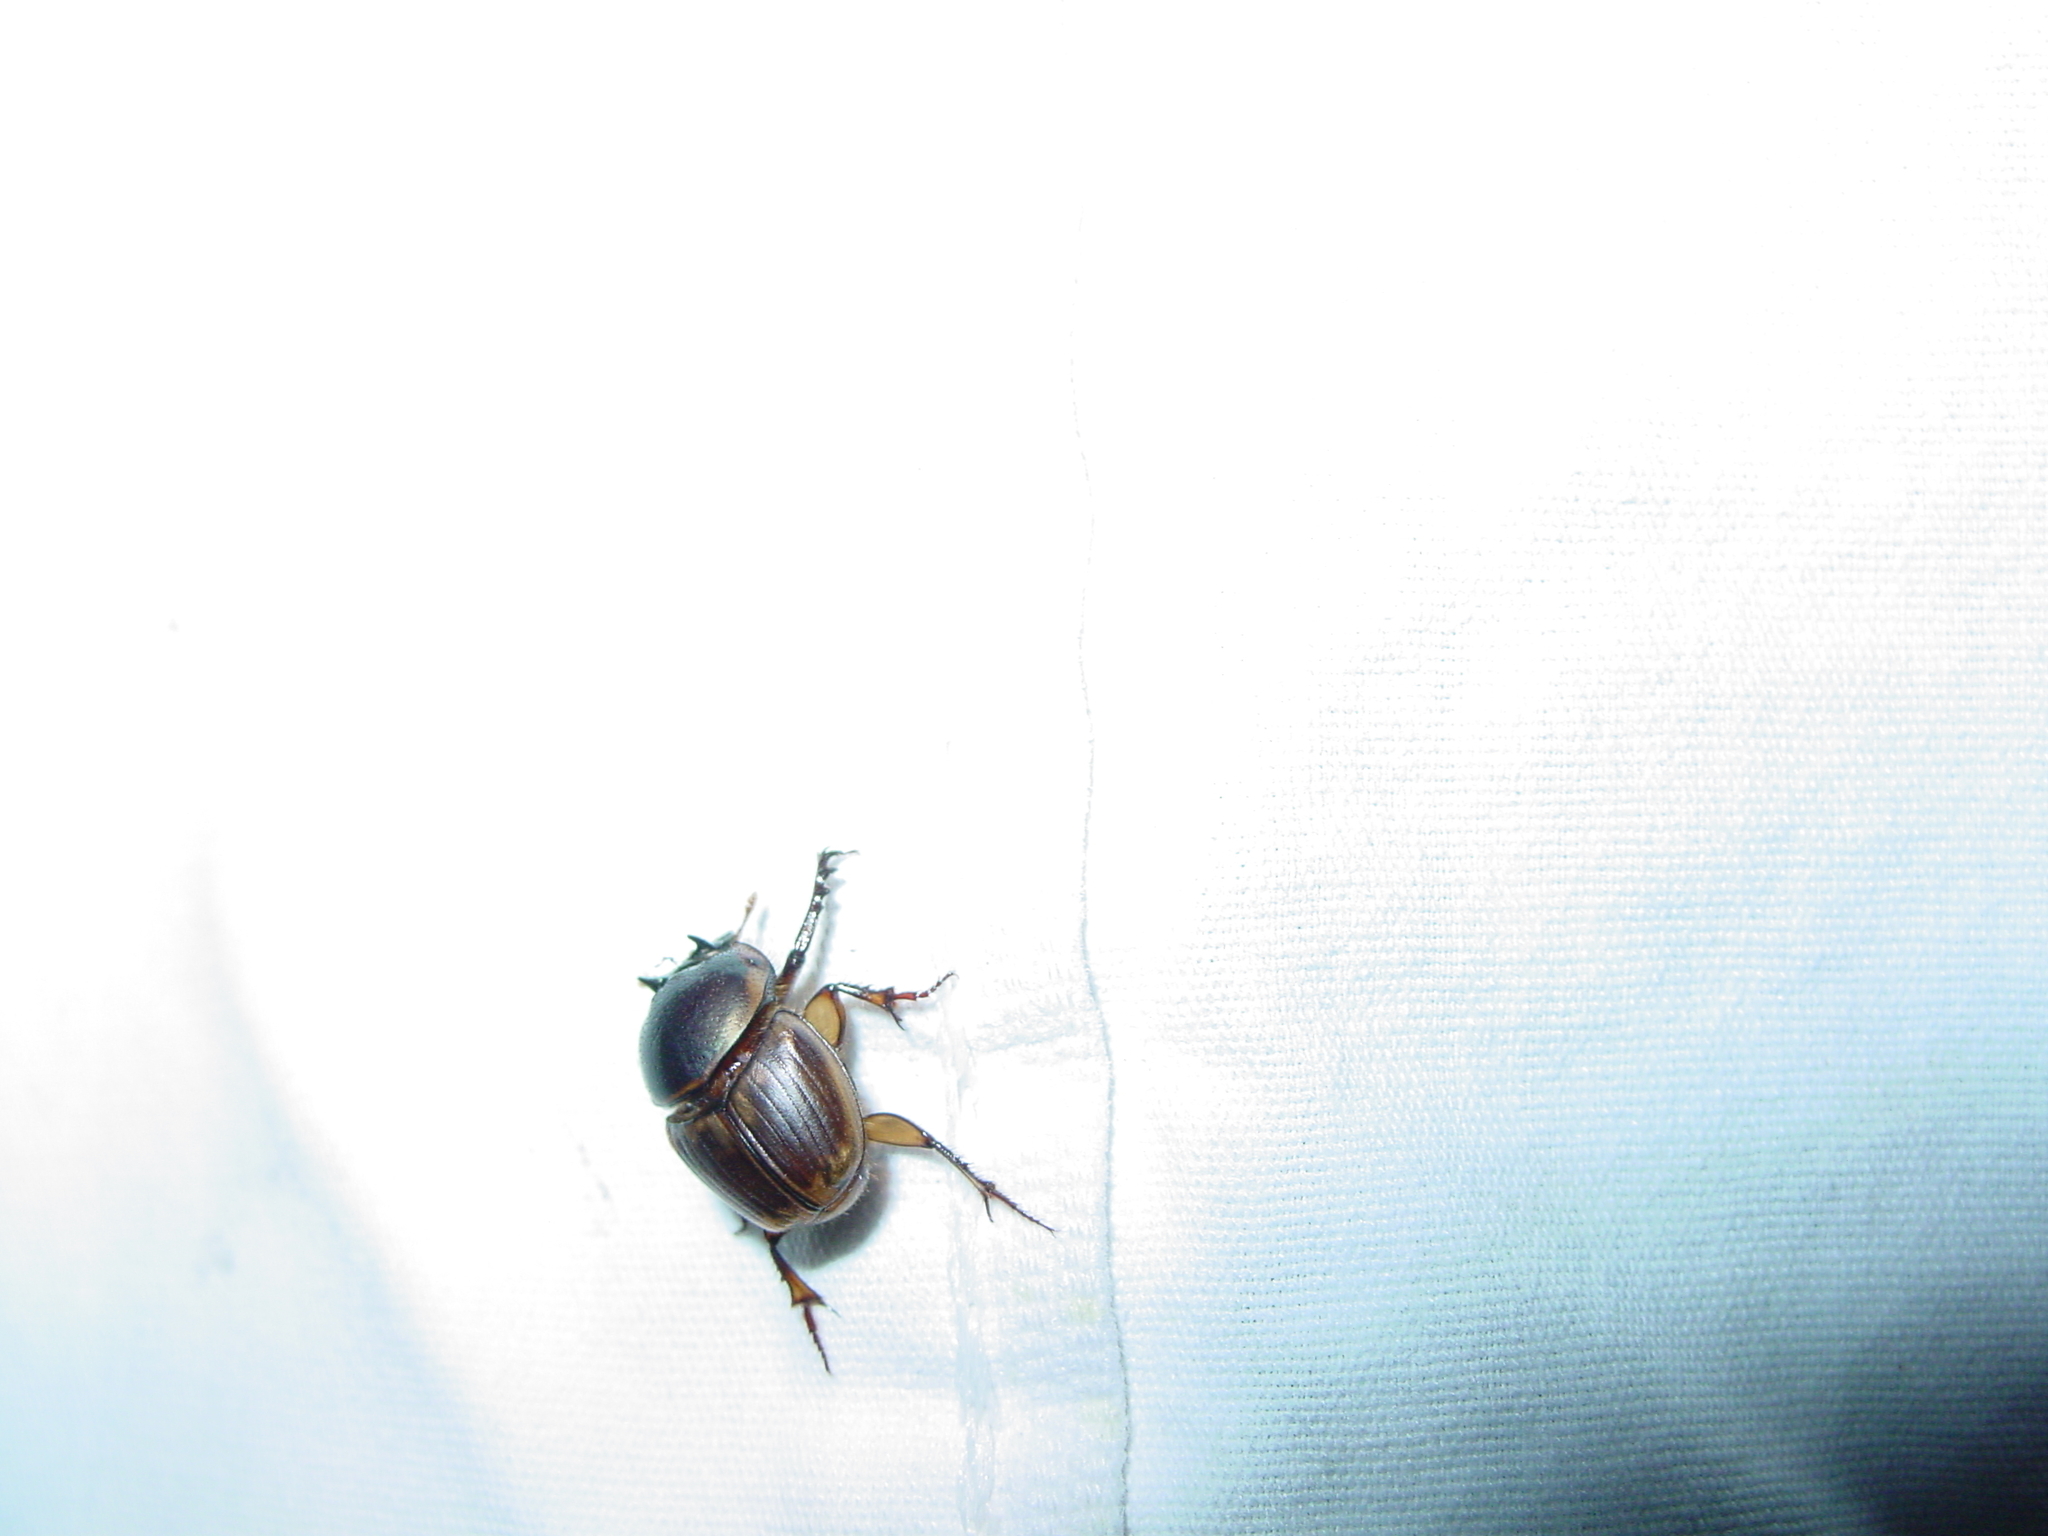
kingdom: Animalia
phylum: Arthropoda
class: Insecta
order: Coleoptera
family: Scarabaeidae
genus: Digitonthophagus
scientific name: Digitonthophagus gazella
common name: Brown dung beetle
